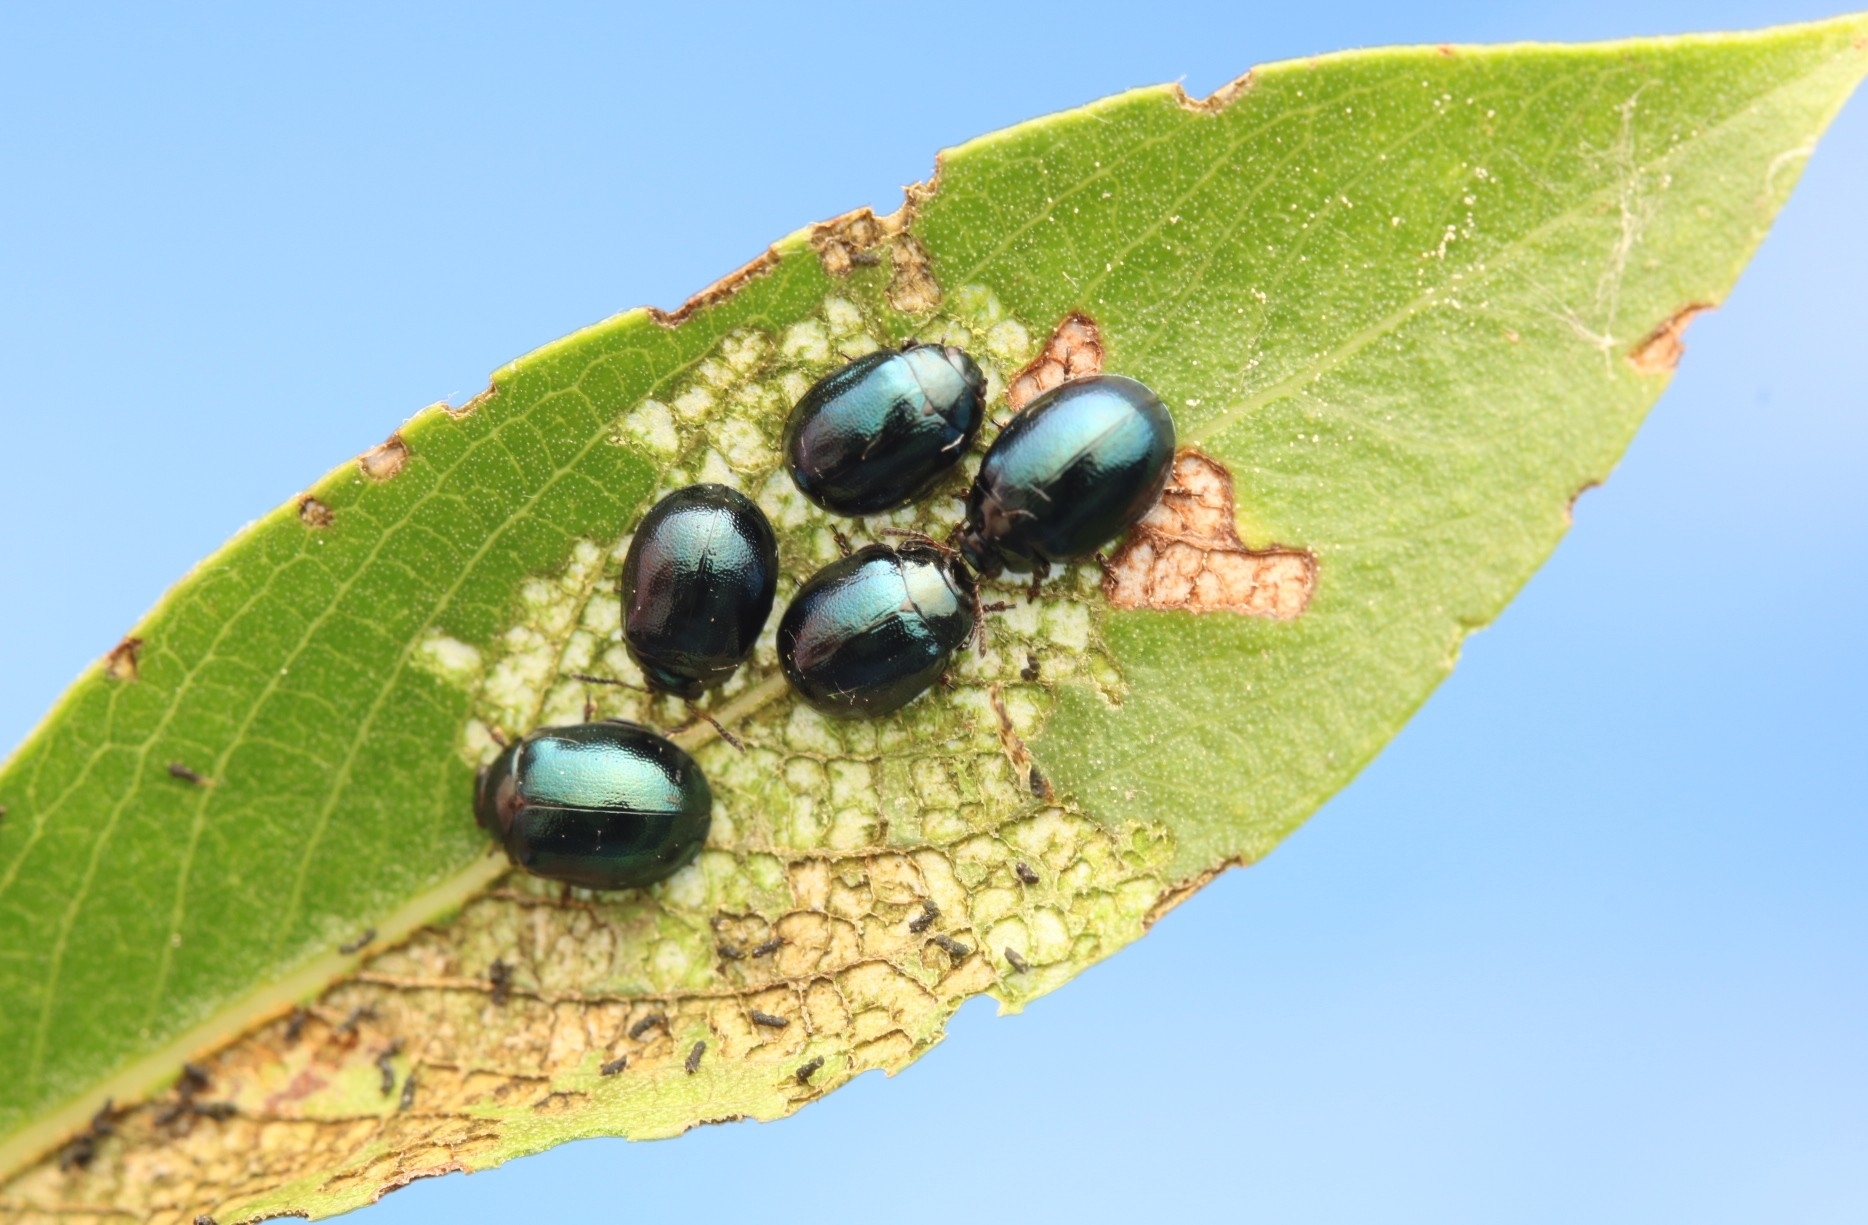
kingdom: Animalia
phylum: Arthropoda
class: Insecta
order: Coleoptera
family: Chrysomelidae
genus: Plagiodera
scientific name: Plagiodera versicolora
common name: Imported willow leaf beetle
